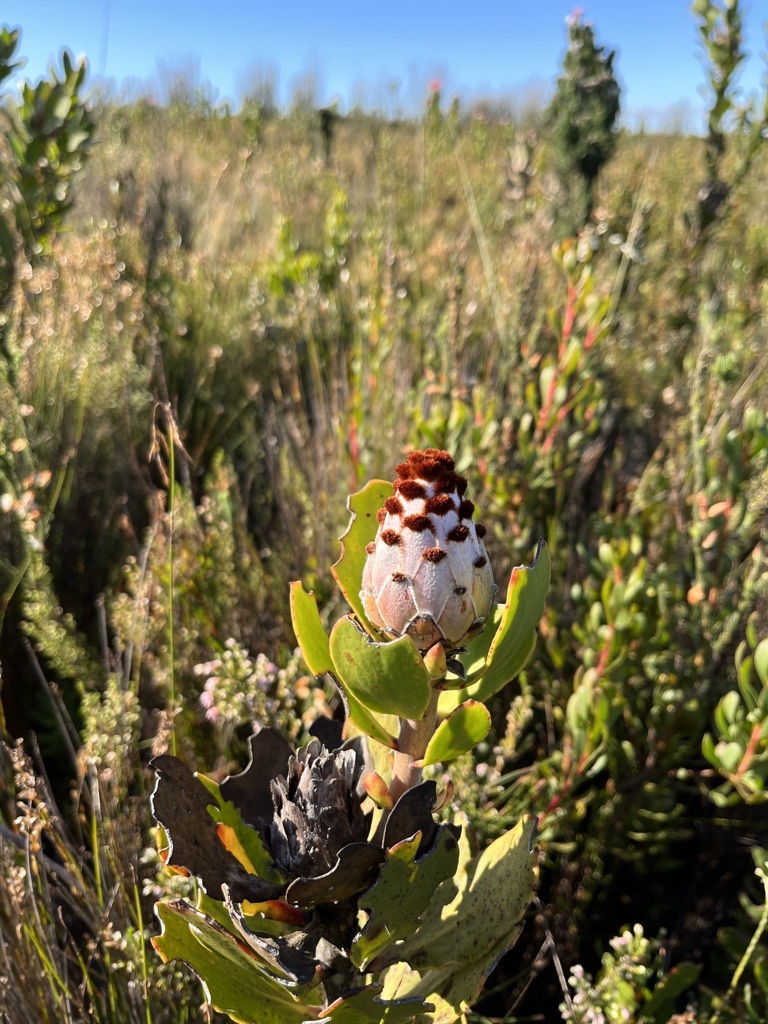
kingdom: Plantae
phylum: Tracheophyta
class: Magnoliopsida
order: Proteales
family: Proteaceae
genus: Protea
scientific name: Protea speciosa
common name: Brown-beard sugarbush
